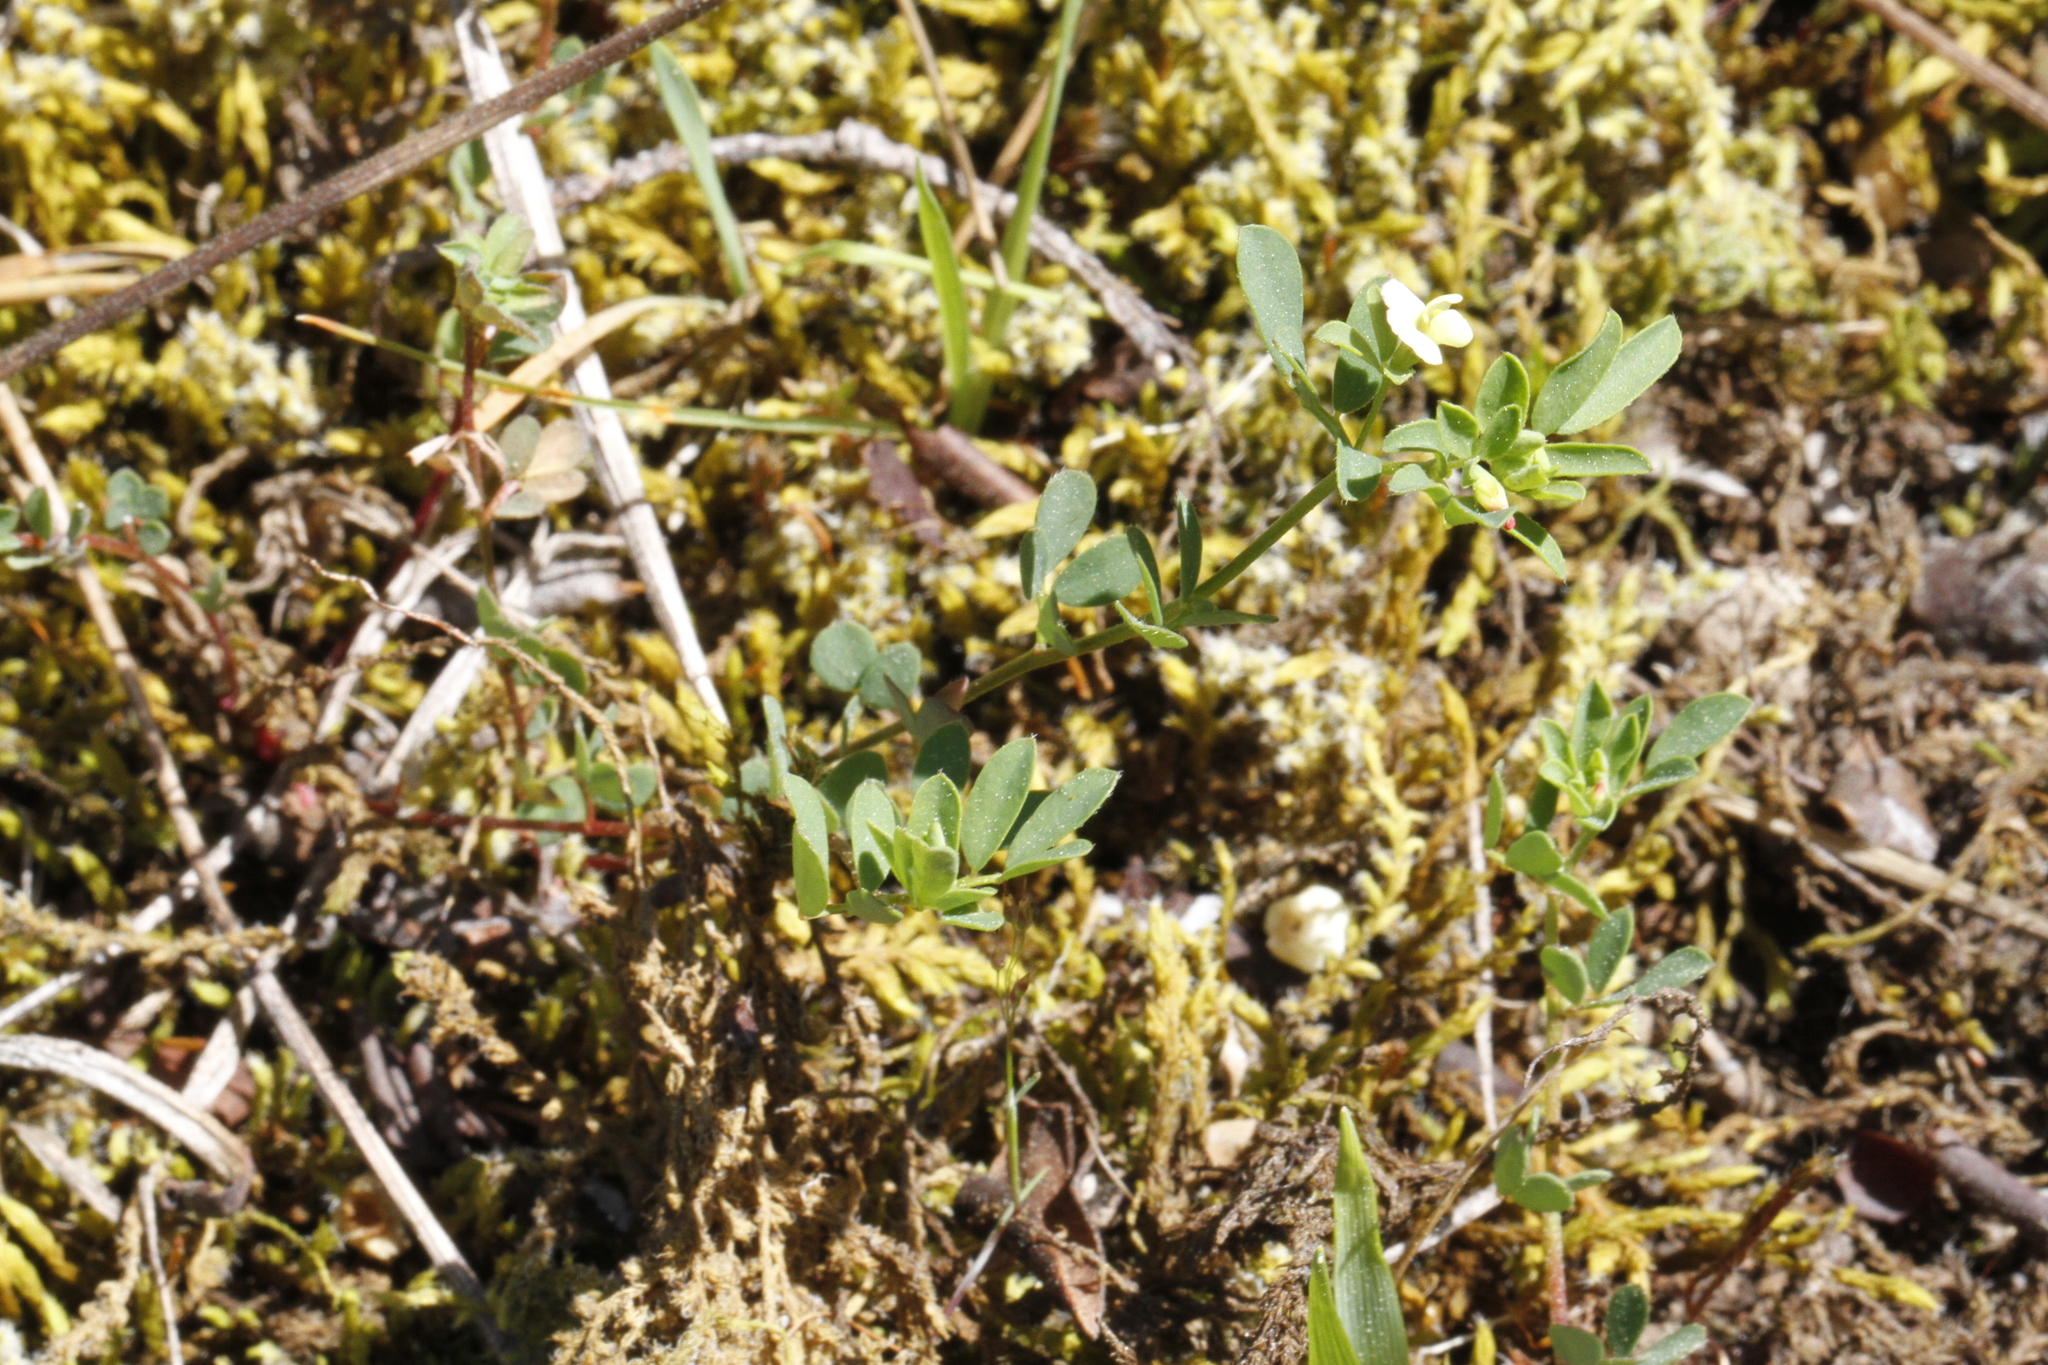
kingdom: Plantae
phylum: Tracheophyta
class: Magnoliopsida
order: Fabales
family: Fabaceae
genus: Acmispon
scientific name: Acmispon parviflorus
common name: Desert deer-vetch
